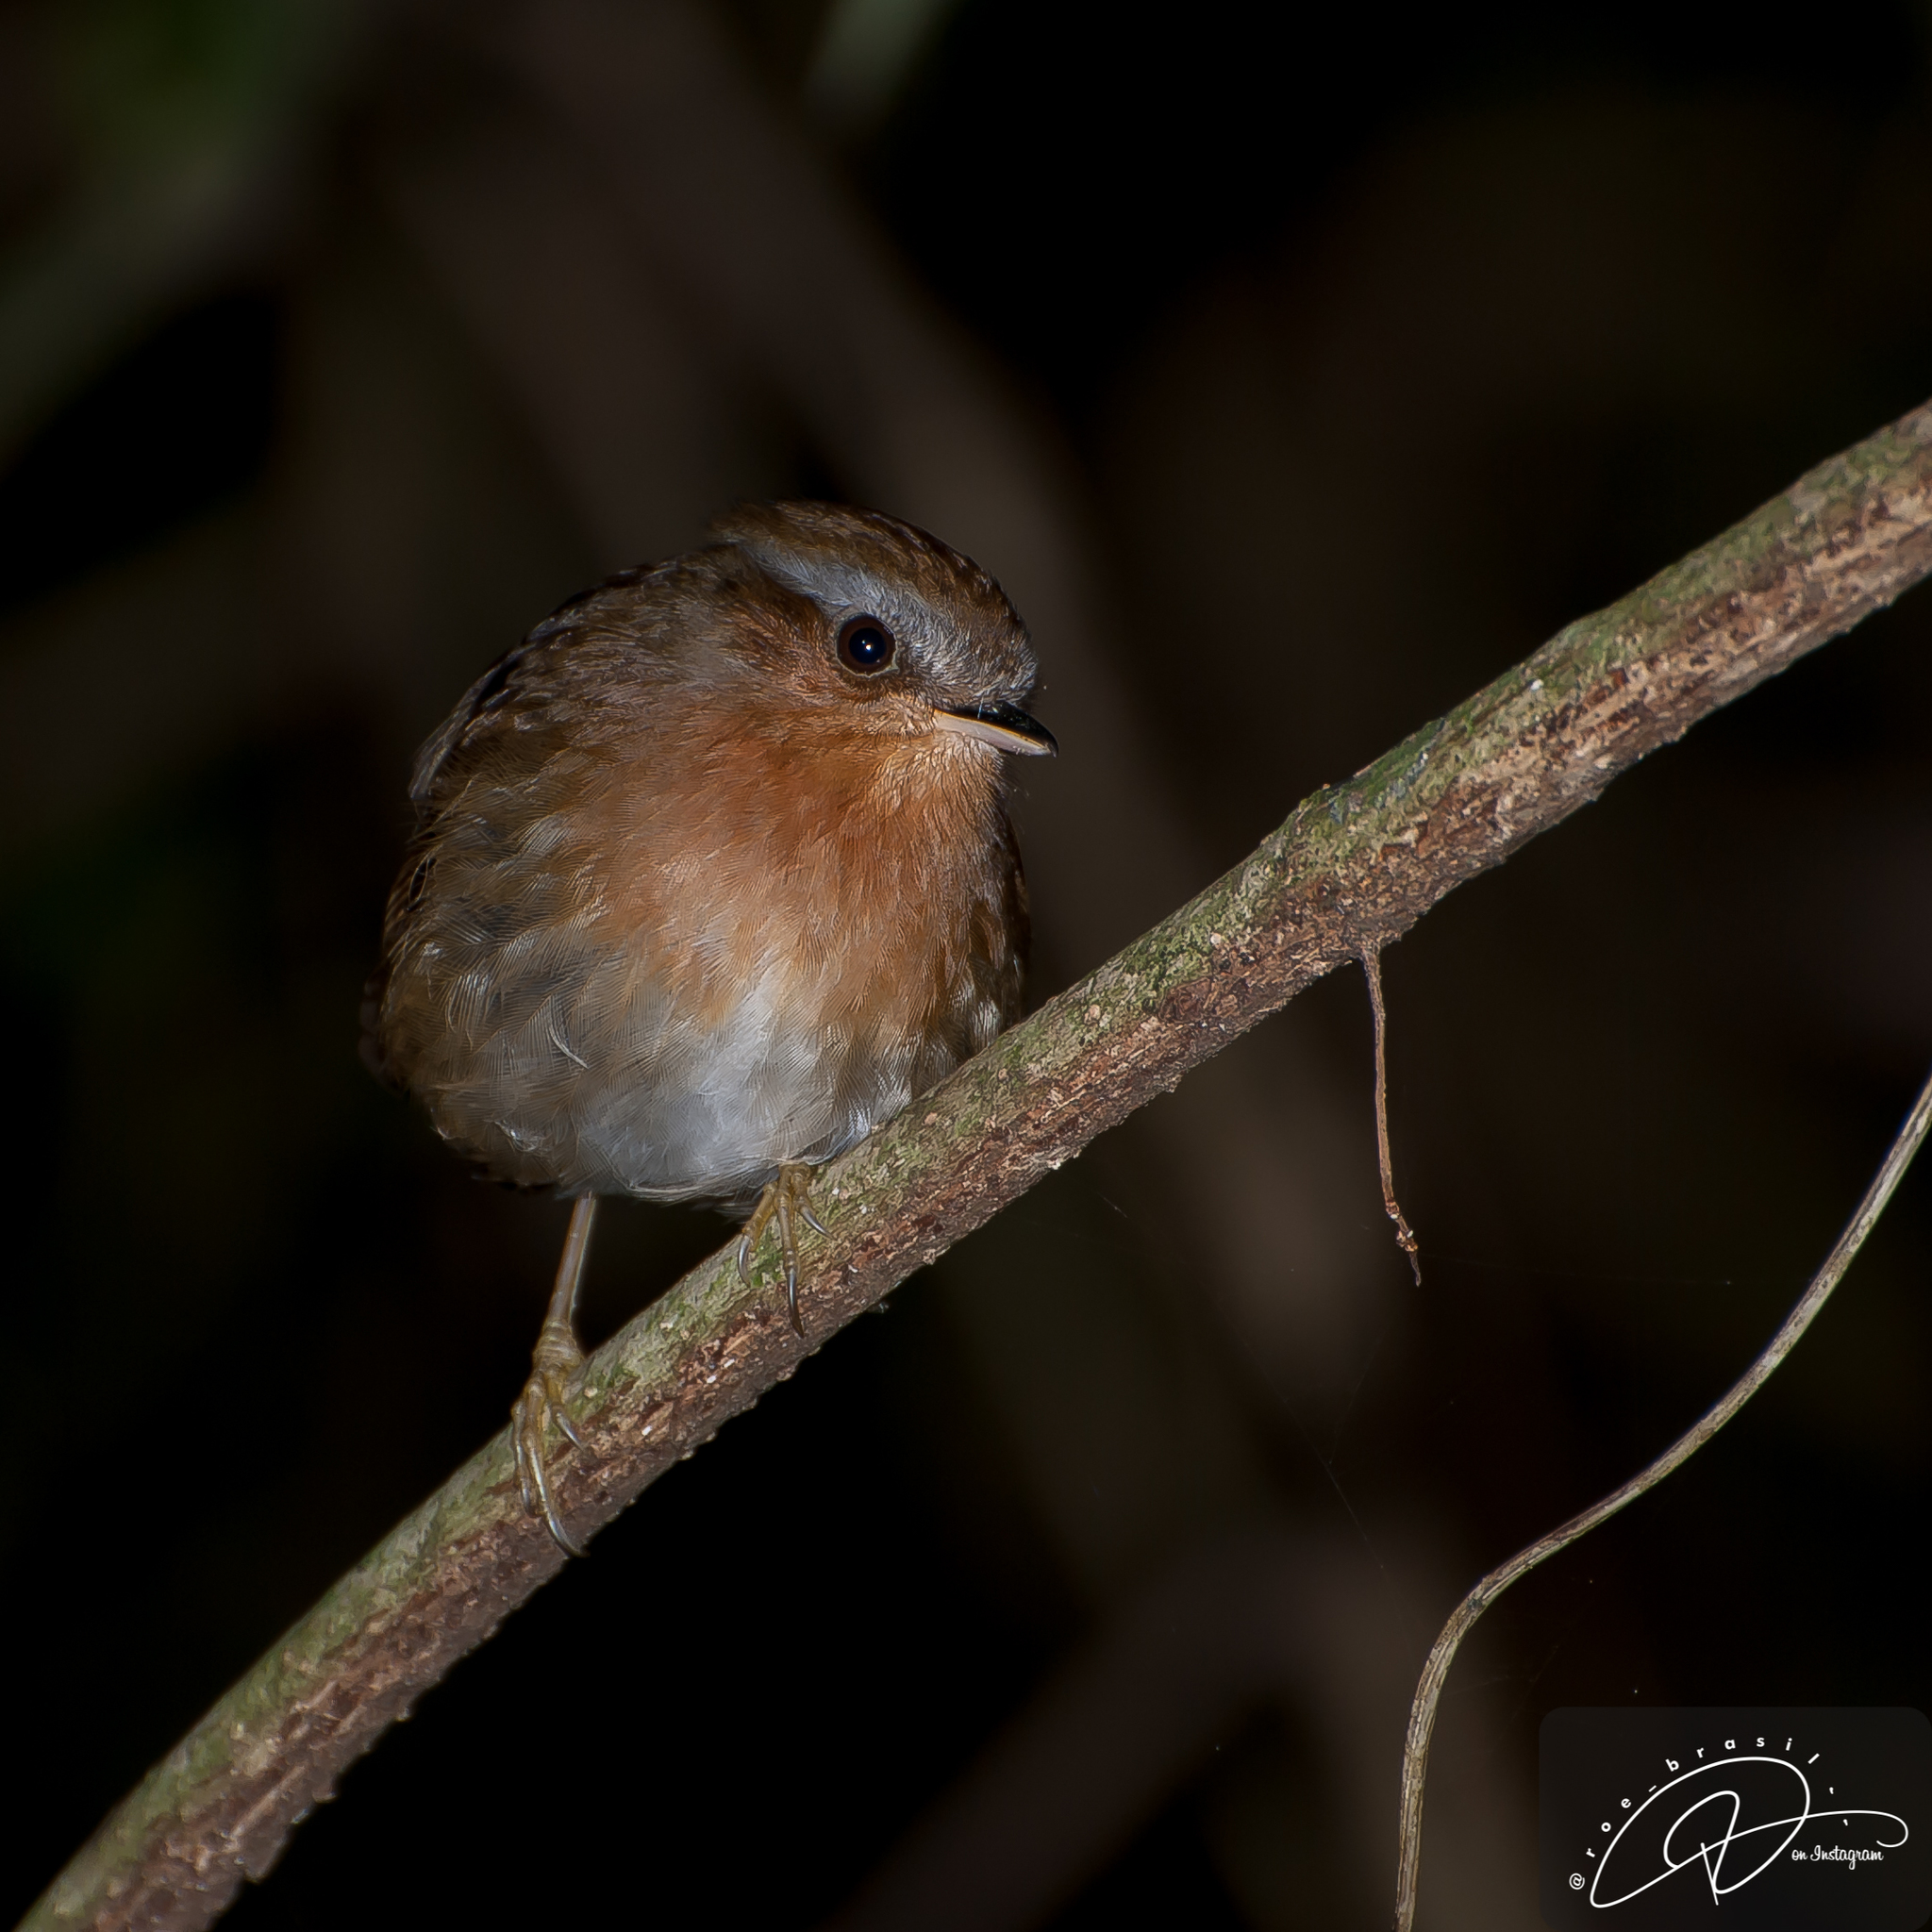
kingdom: Animalia
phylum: Chordata
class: Aves
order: Passeriformes
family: Conopophagidae
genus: Conopophaga
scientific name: Conopophaga lineata
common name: Rufous gnateater
